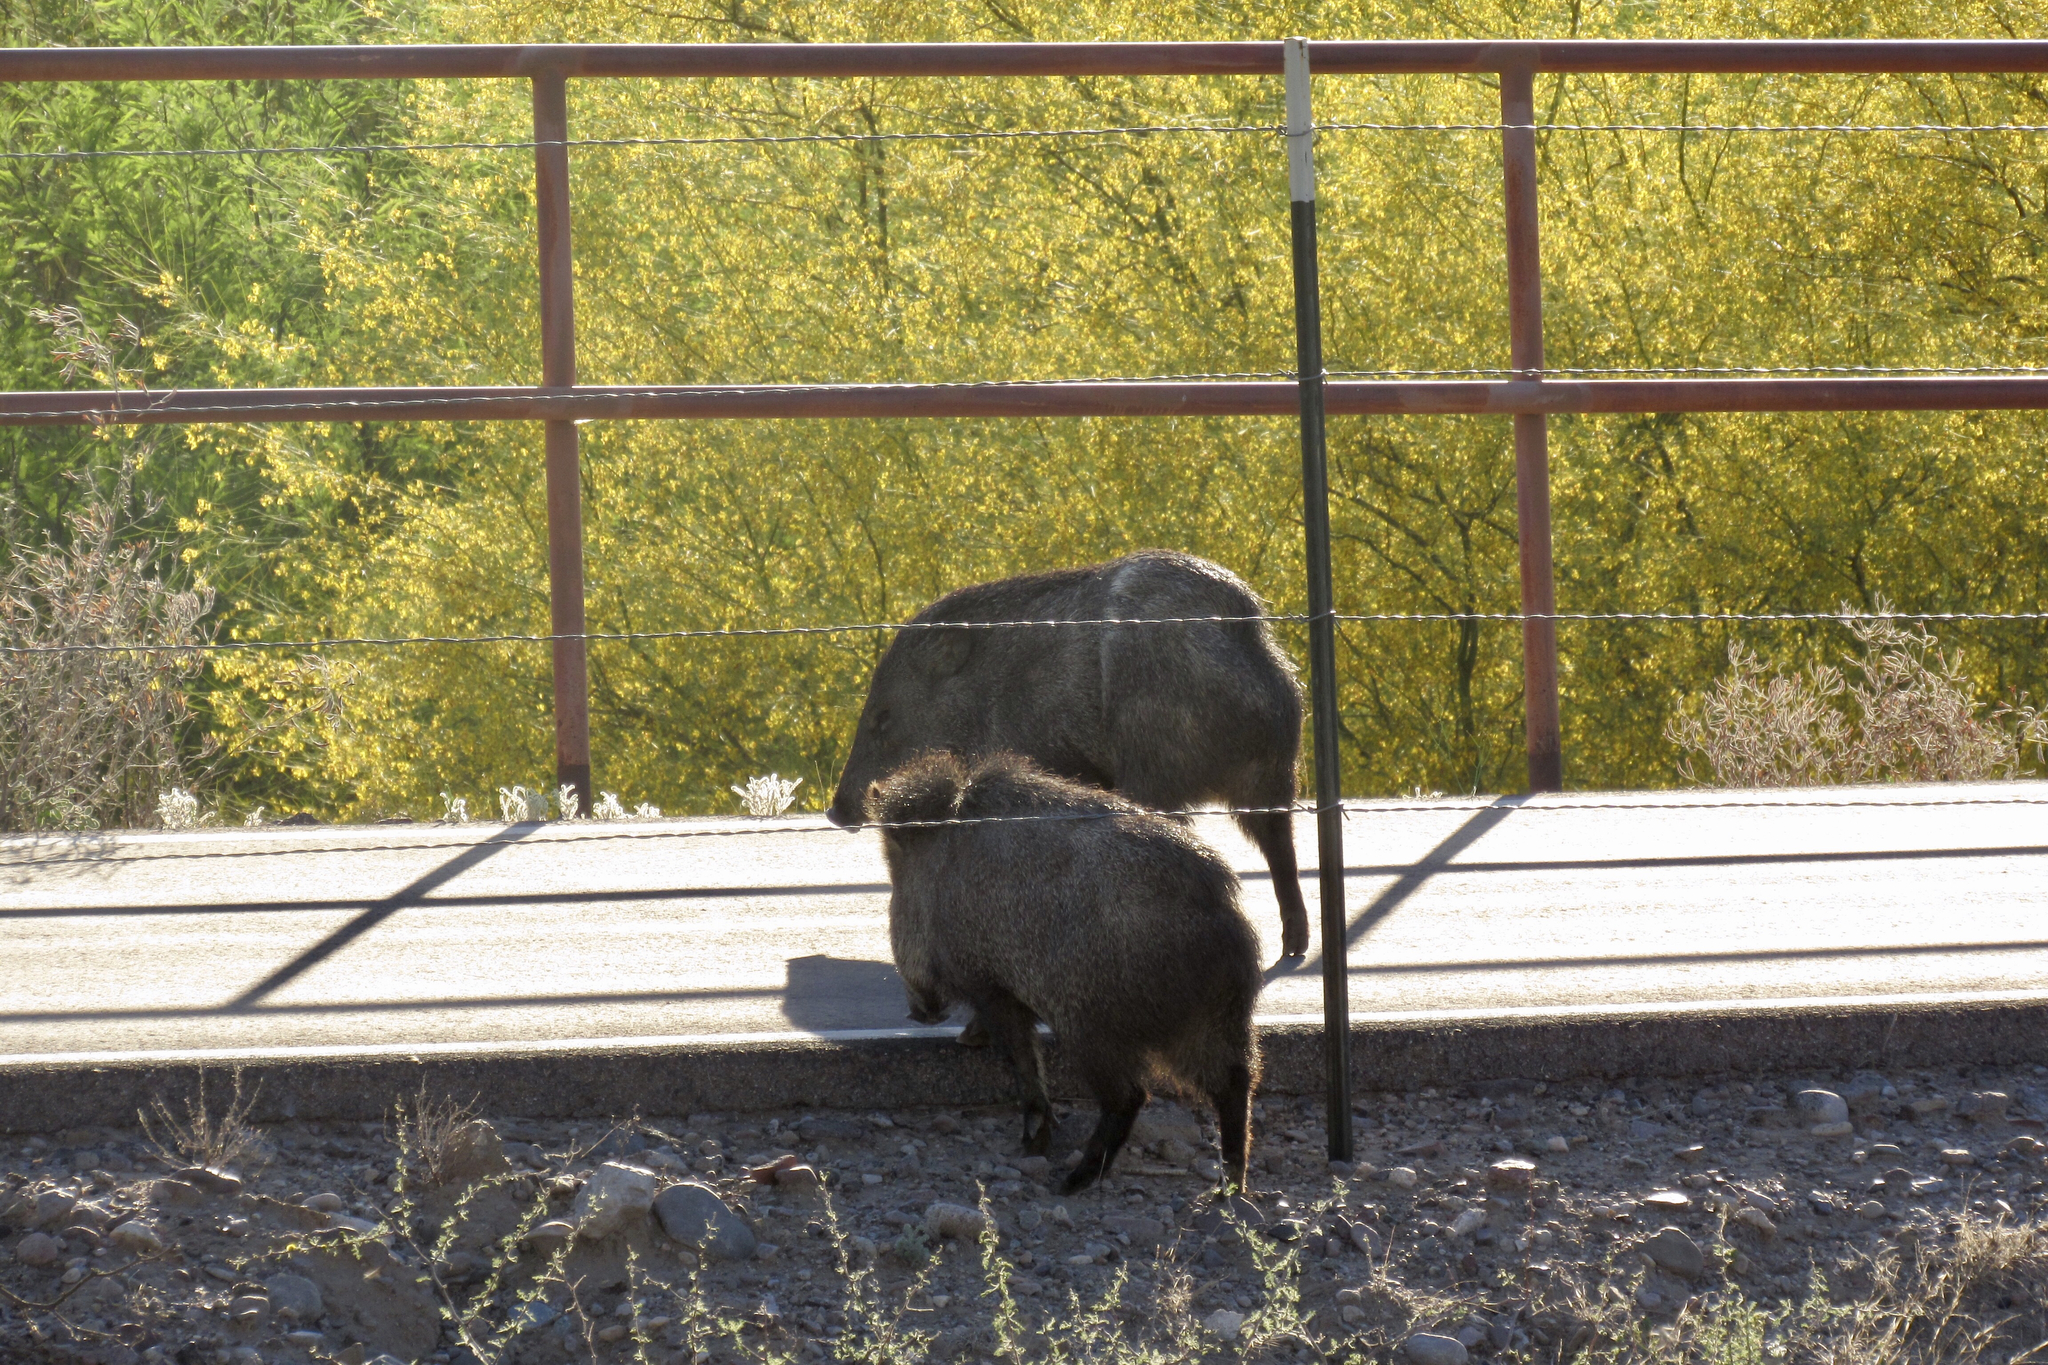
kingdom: Animalia
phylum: Chordata
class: Mammalia
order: Artiodactyla
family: Tayassuidae
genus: Pecari
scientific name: Pecari tajacu
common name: Collared peccary
